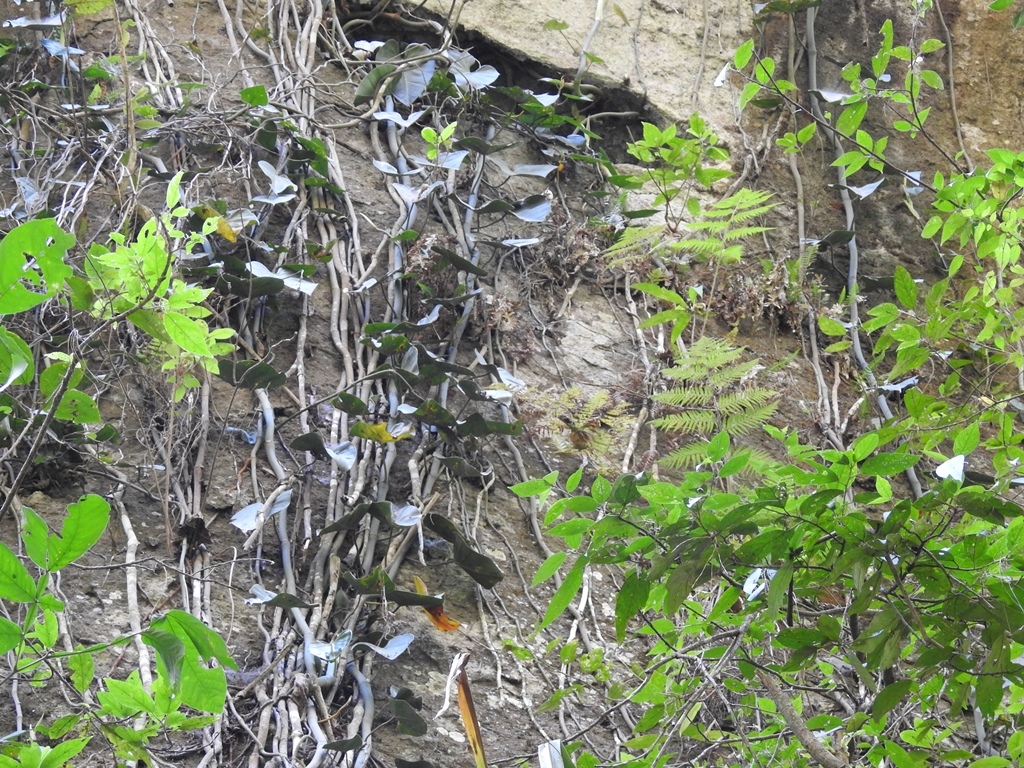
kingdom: Plantae
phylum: Tracheophyta
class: Liliopsida
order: Alismatales
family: Araceae
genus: Philodendron
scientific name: Philodendron hederaceum
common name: Vilevine
